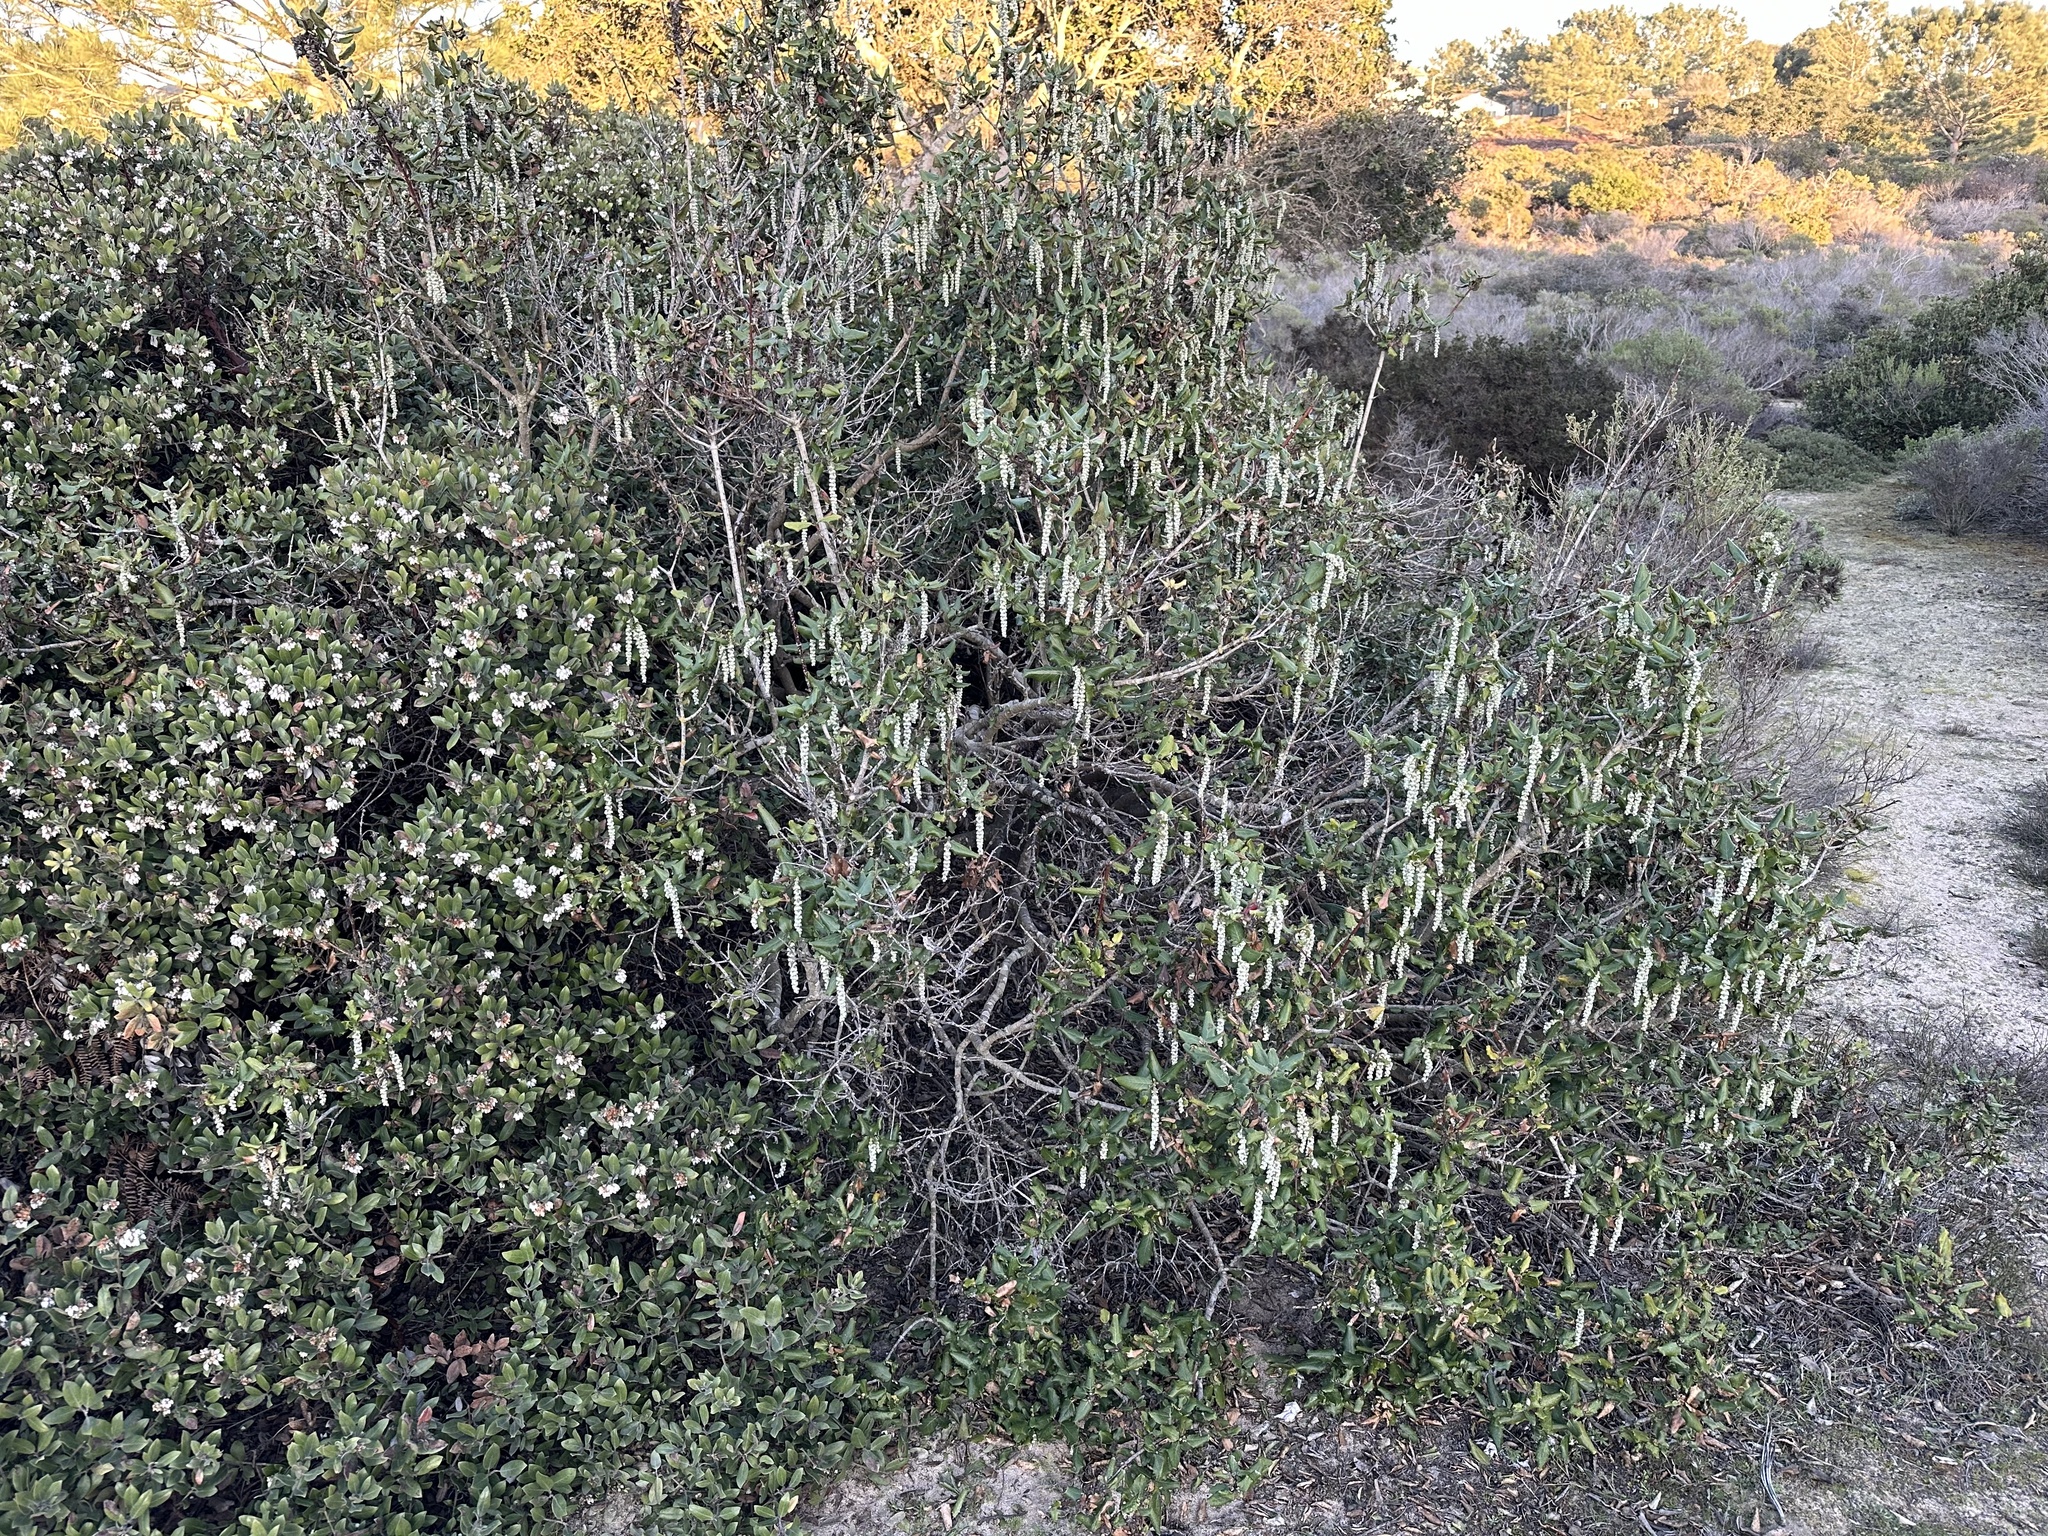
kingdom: Plantae
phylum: Tracheophyta
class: Magnoliopsida
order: Garryales
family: Garryaceae
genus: Garrya
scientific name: Garrya elliptica
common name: Silk-tassel
